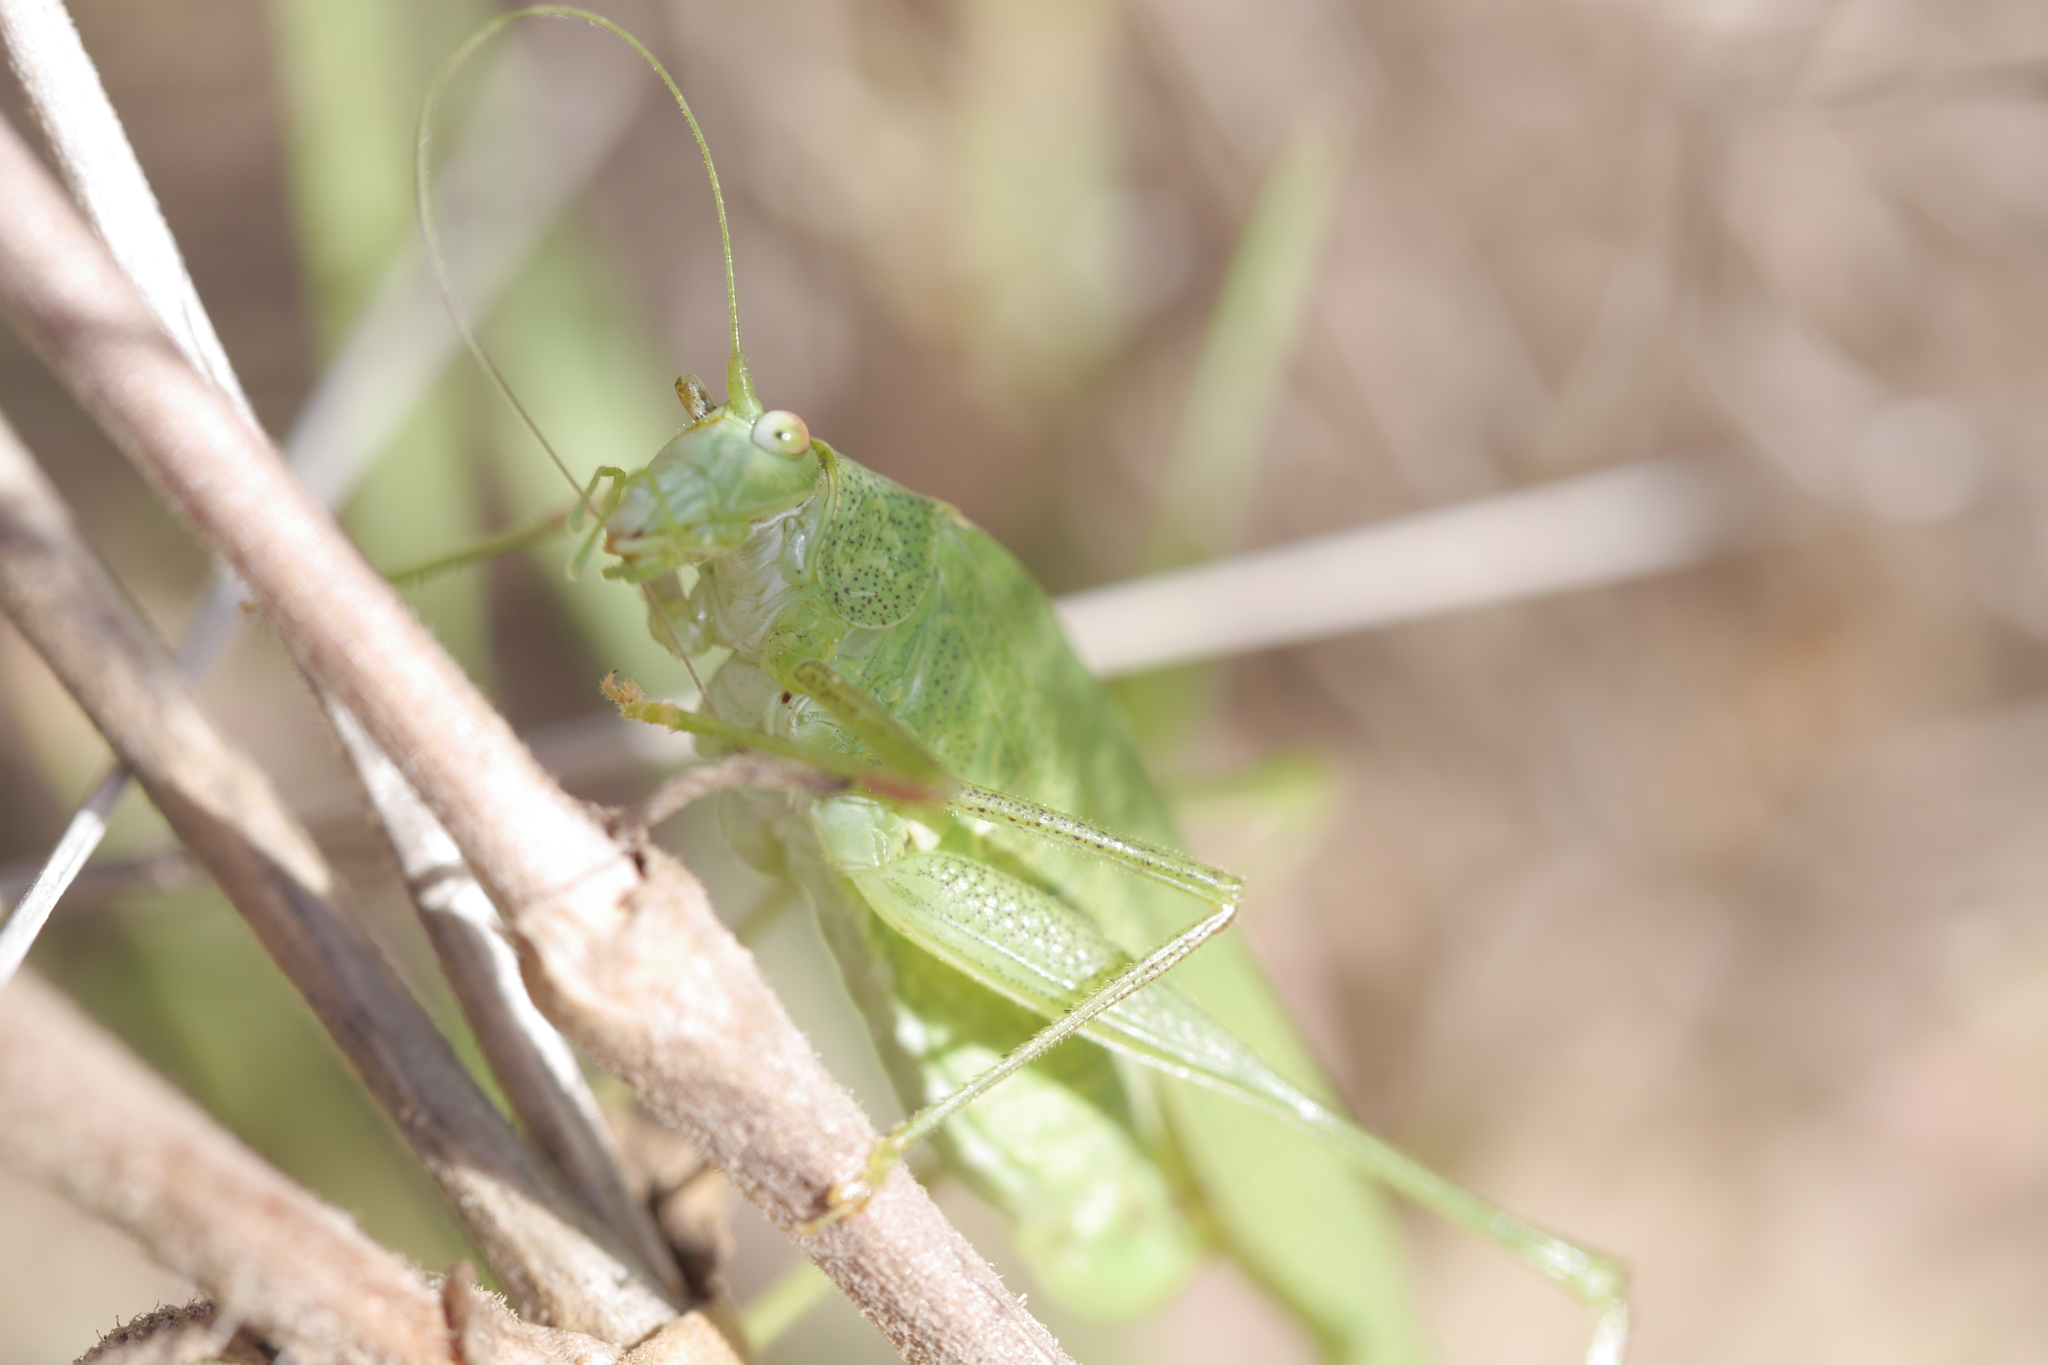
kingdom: Animalia
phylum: Arthropoda
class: Insecta
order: Orthoptera
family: Tettigoniidae
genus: Phaneroptera
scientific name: Phaneroptera nana
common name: Southern sickle bush-cricket
